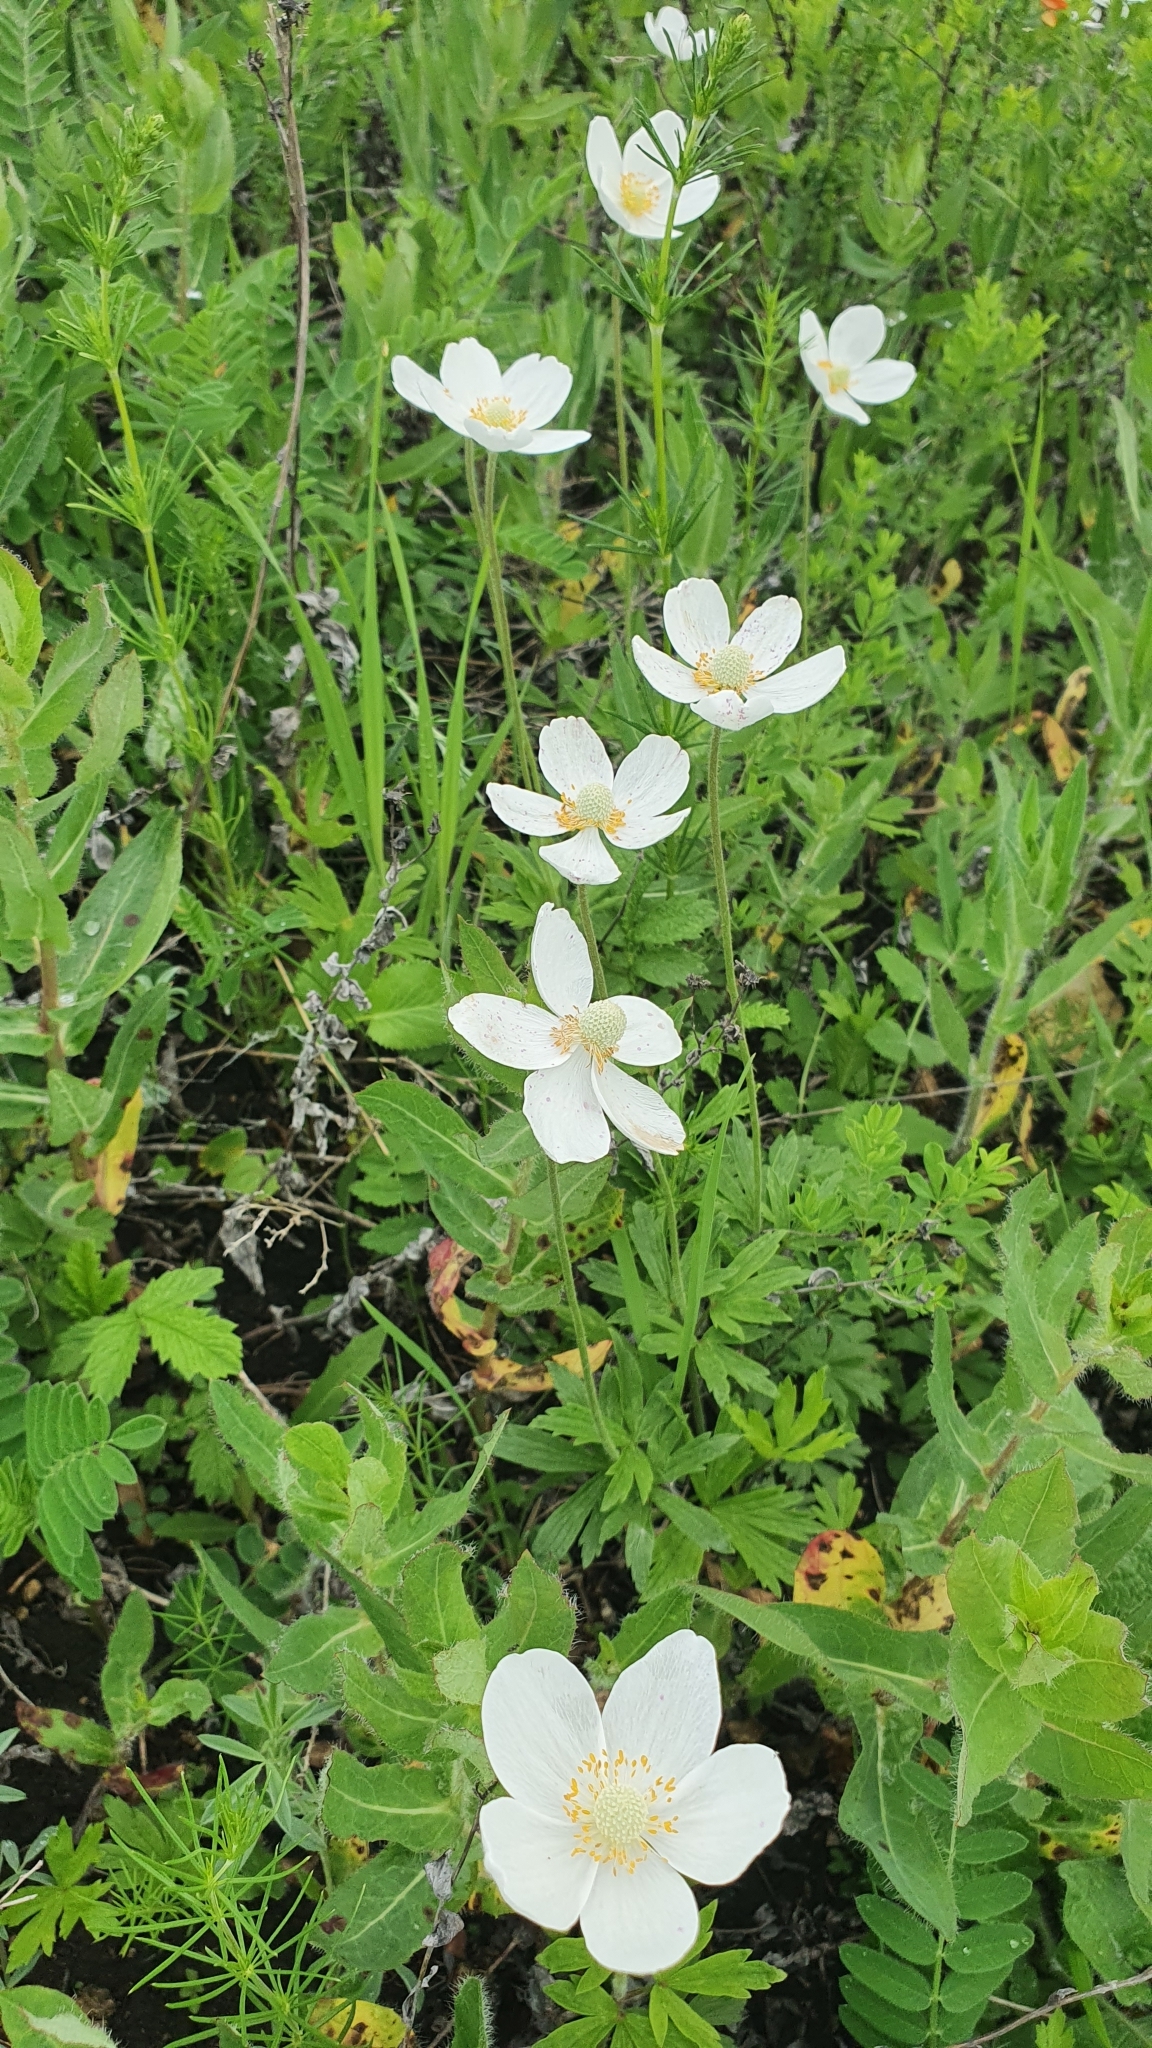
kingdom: Plantae
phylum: Tracheophyta
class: Magnoliopsida
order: Ranunculales
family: Ranunculaceae
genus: Anemone
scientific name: Anemone sylvestris
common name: Snowdrop anemone
